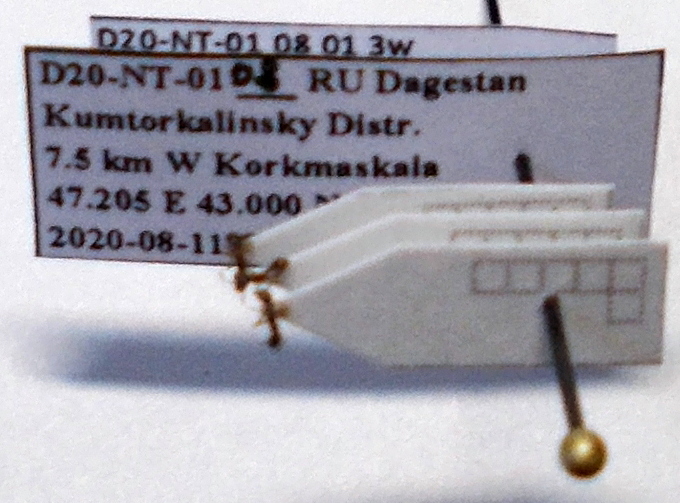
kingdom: Animalia
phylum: Arthropoda
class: Insecta
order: Hymenoptera
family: Formicidae
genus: Cardiocondyla
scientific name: Cardiocondyla stambuloffii
